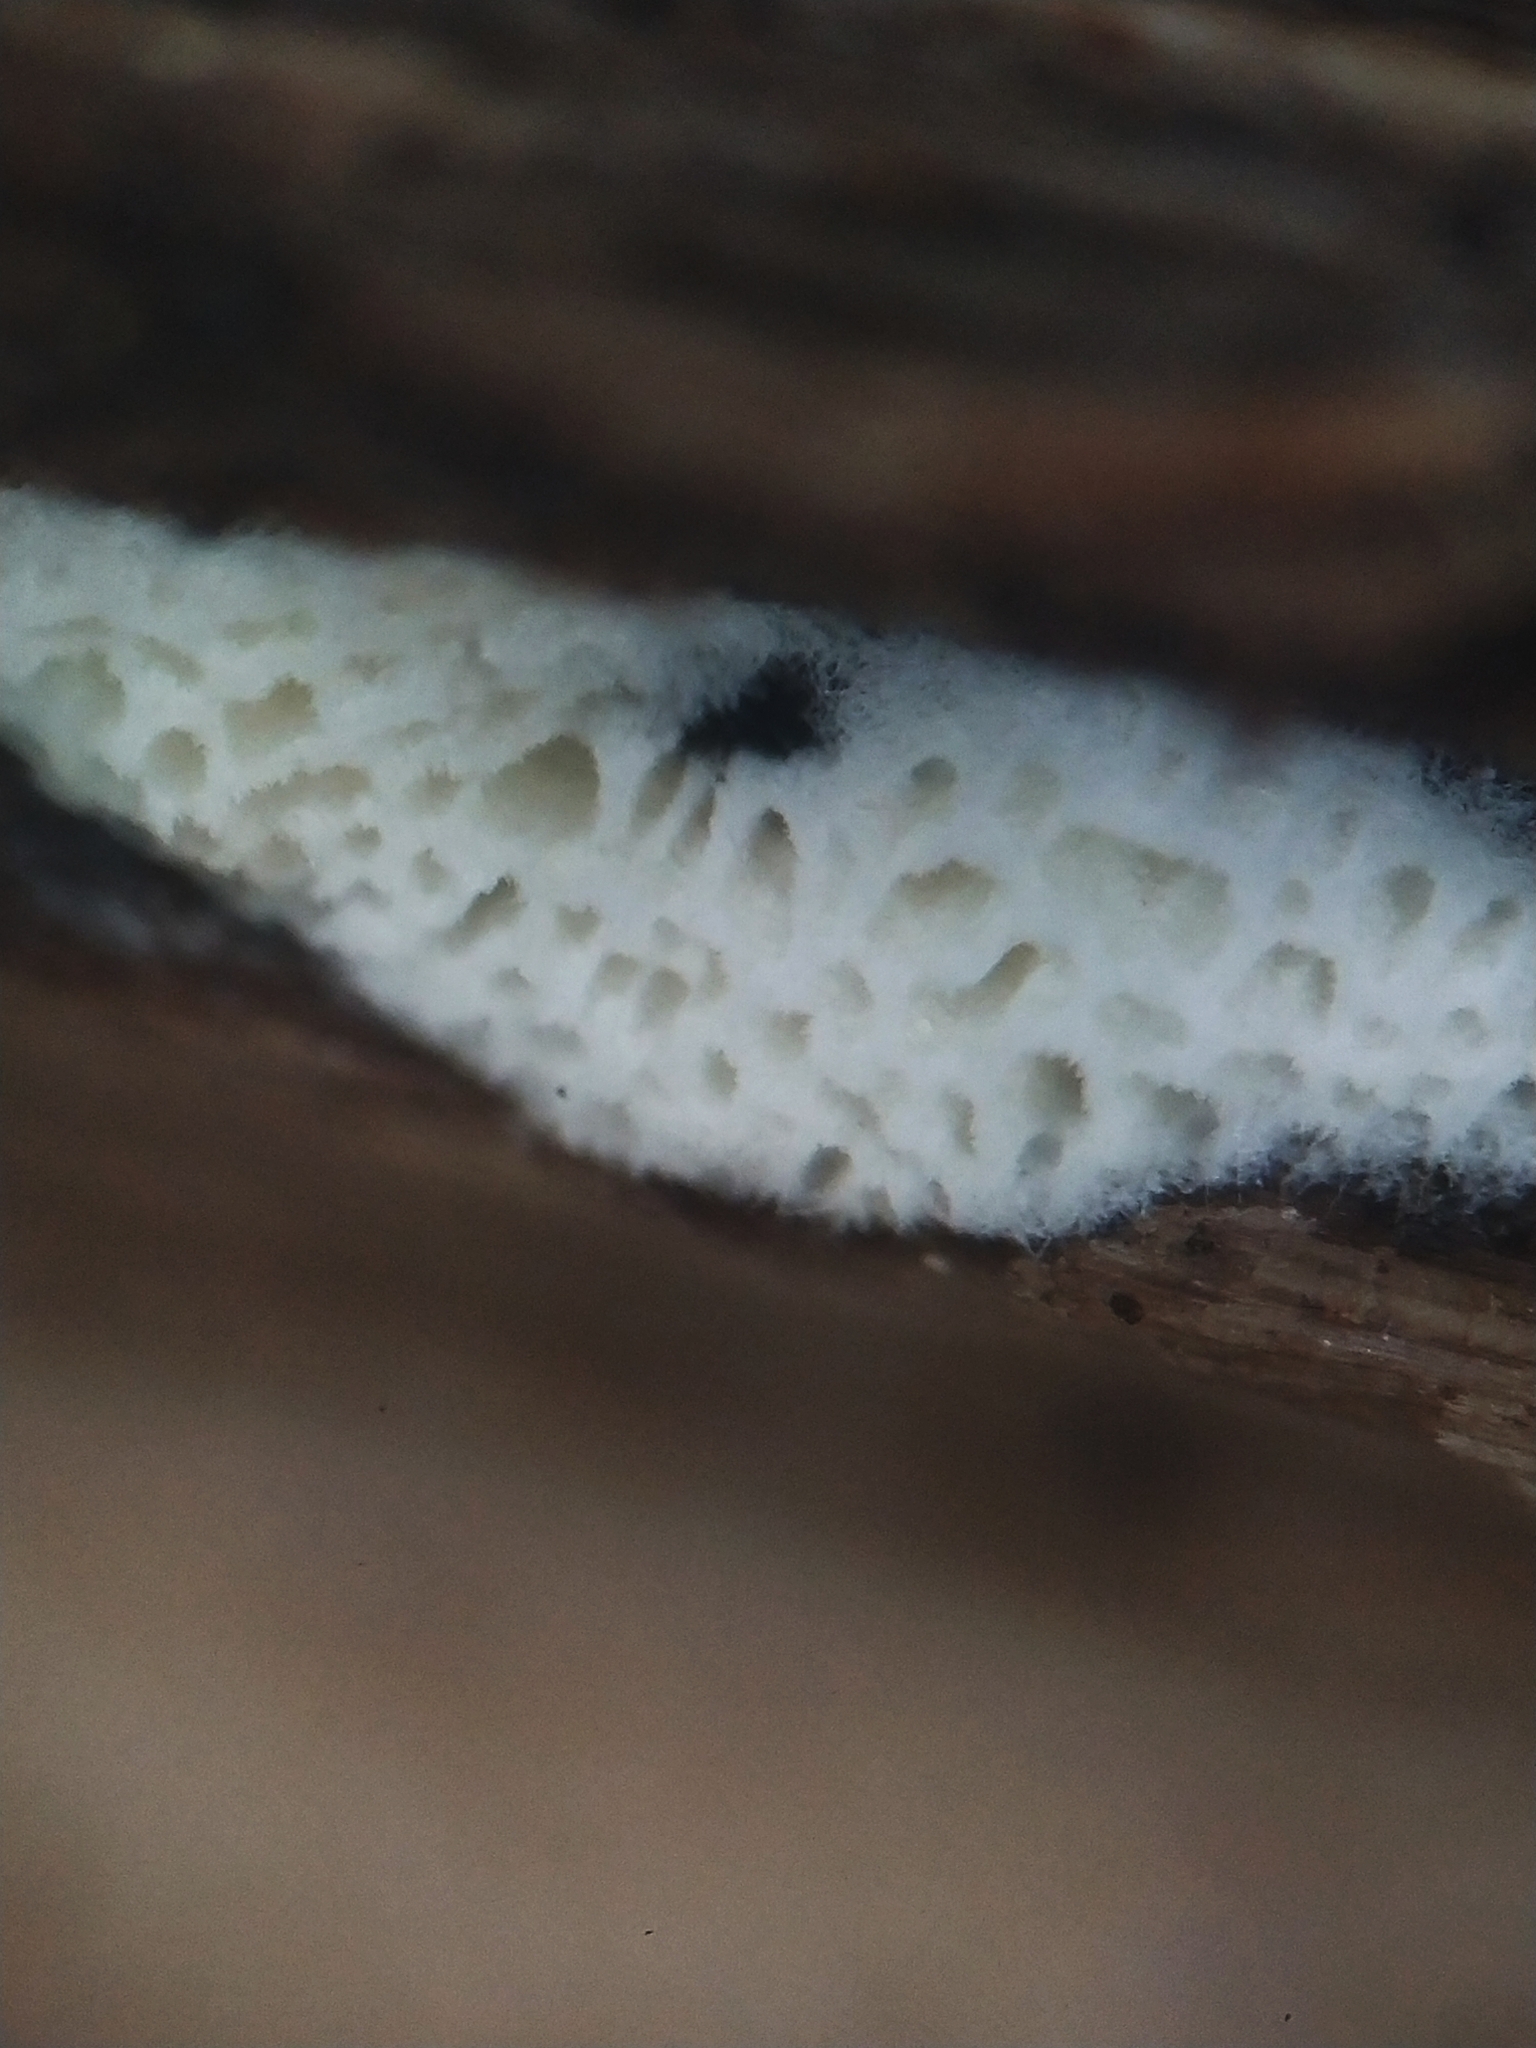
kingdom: Protozoa
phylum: Mycetozoa
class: Protosteliomycetes
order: Ceratiomyxales
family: Ceratiomyxaceae
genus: Ceratiomyxa
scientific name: Ceratiomyxa fruticulosa
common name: Honeycomb coral slime mold
